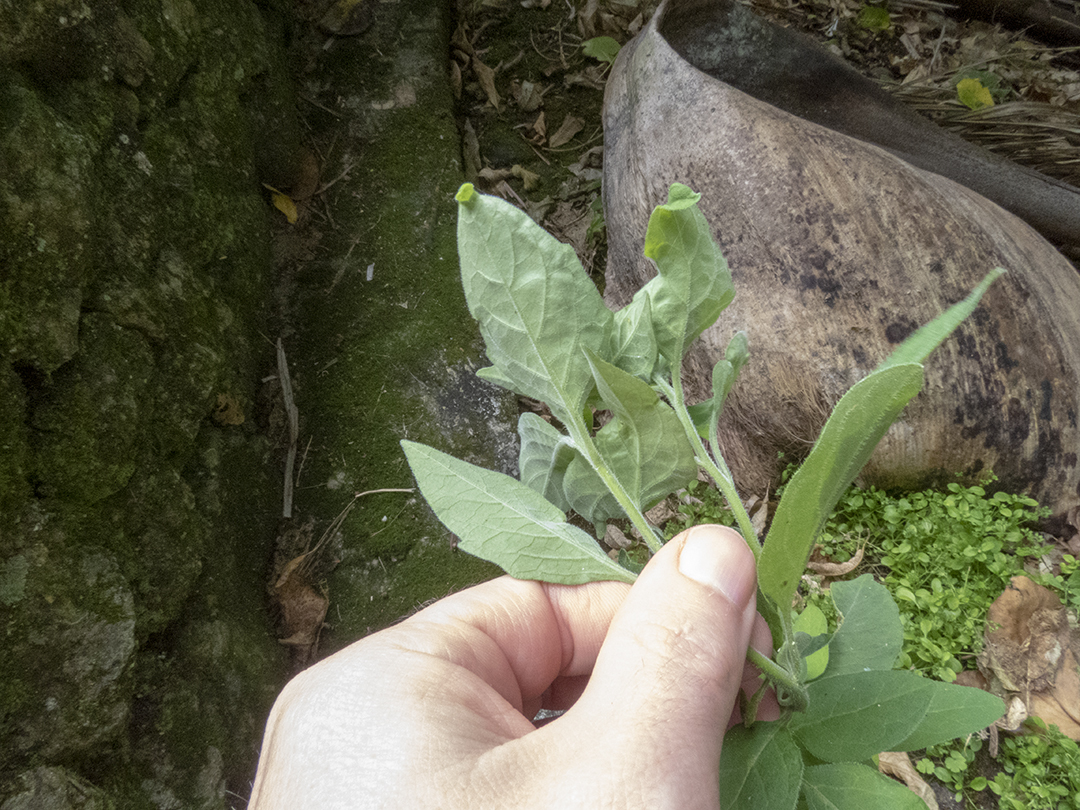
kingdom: Plantae
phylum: Tracheophyta
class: Magnoliopsida
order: Solanales
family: Solanaceae
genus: Solanum
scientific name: Solanum chenopodioides
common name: Tall nightshade
